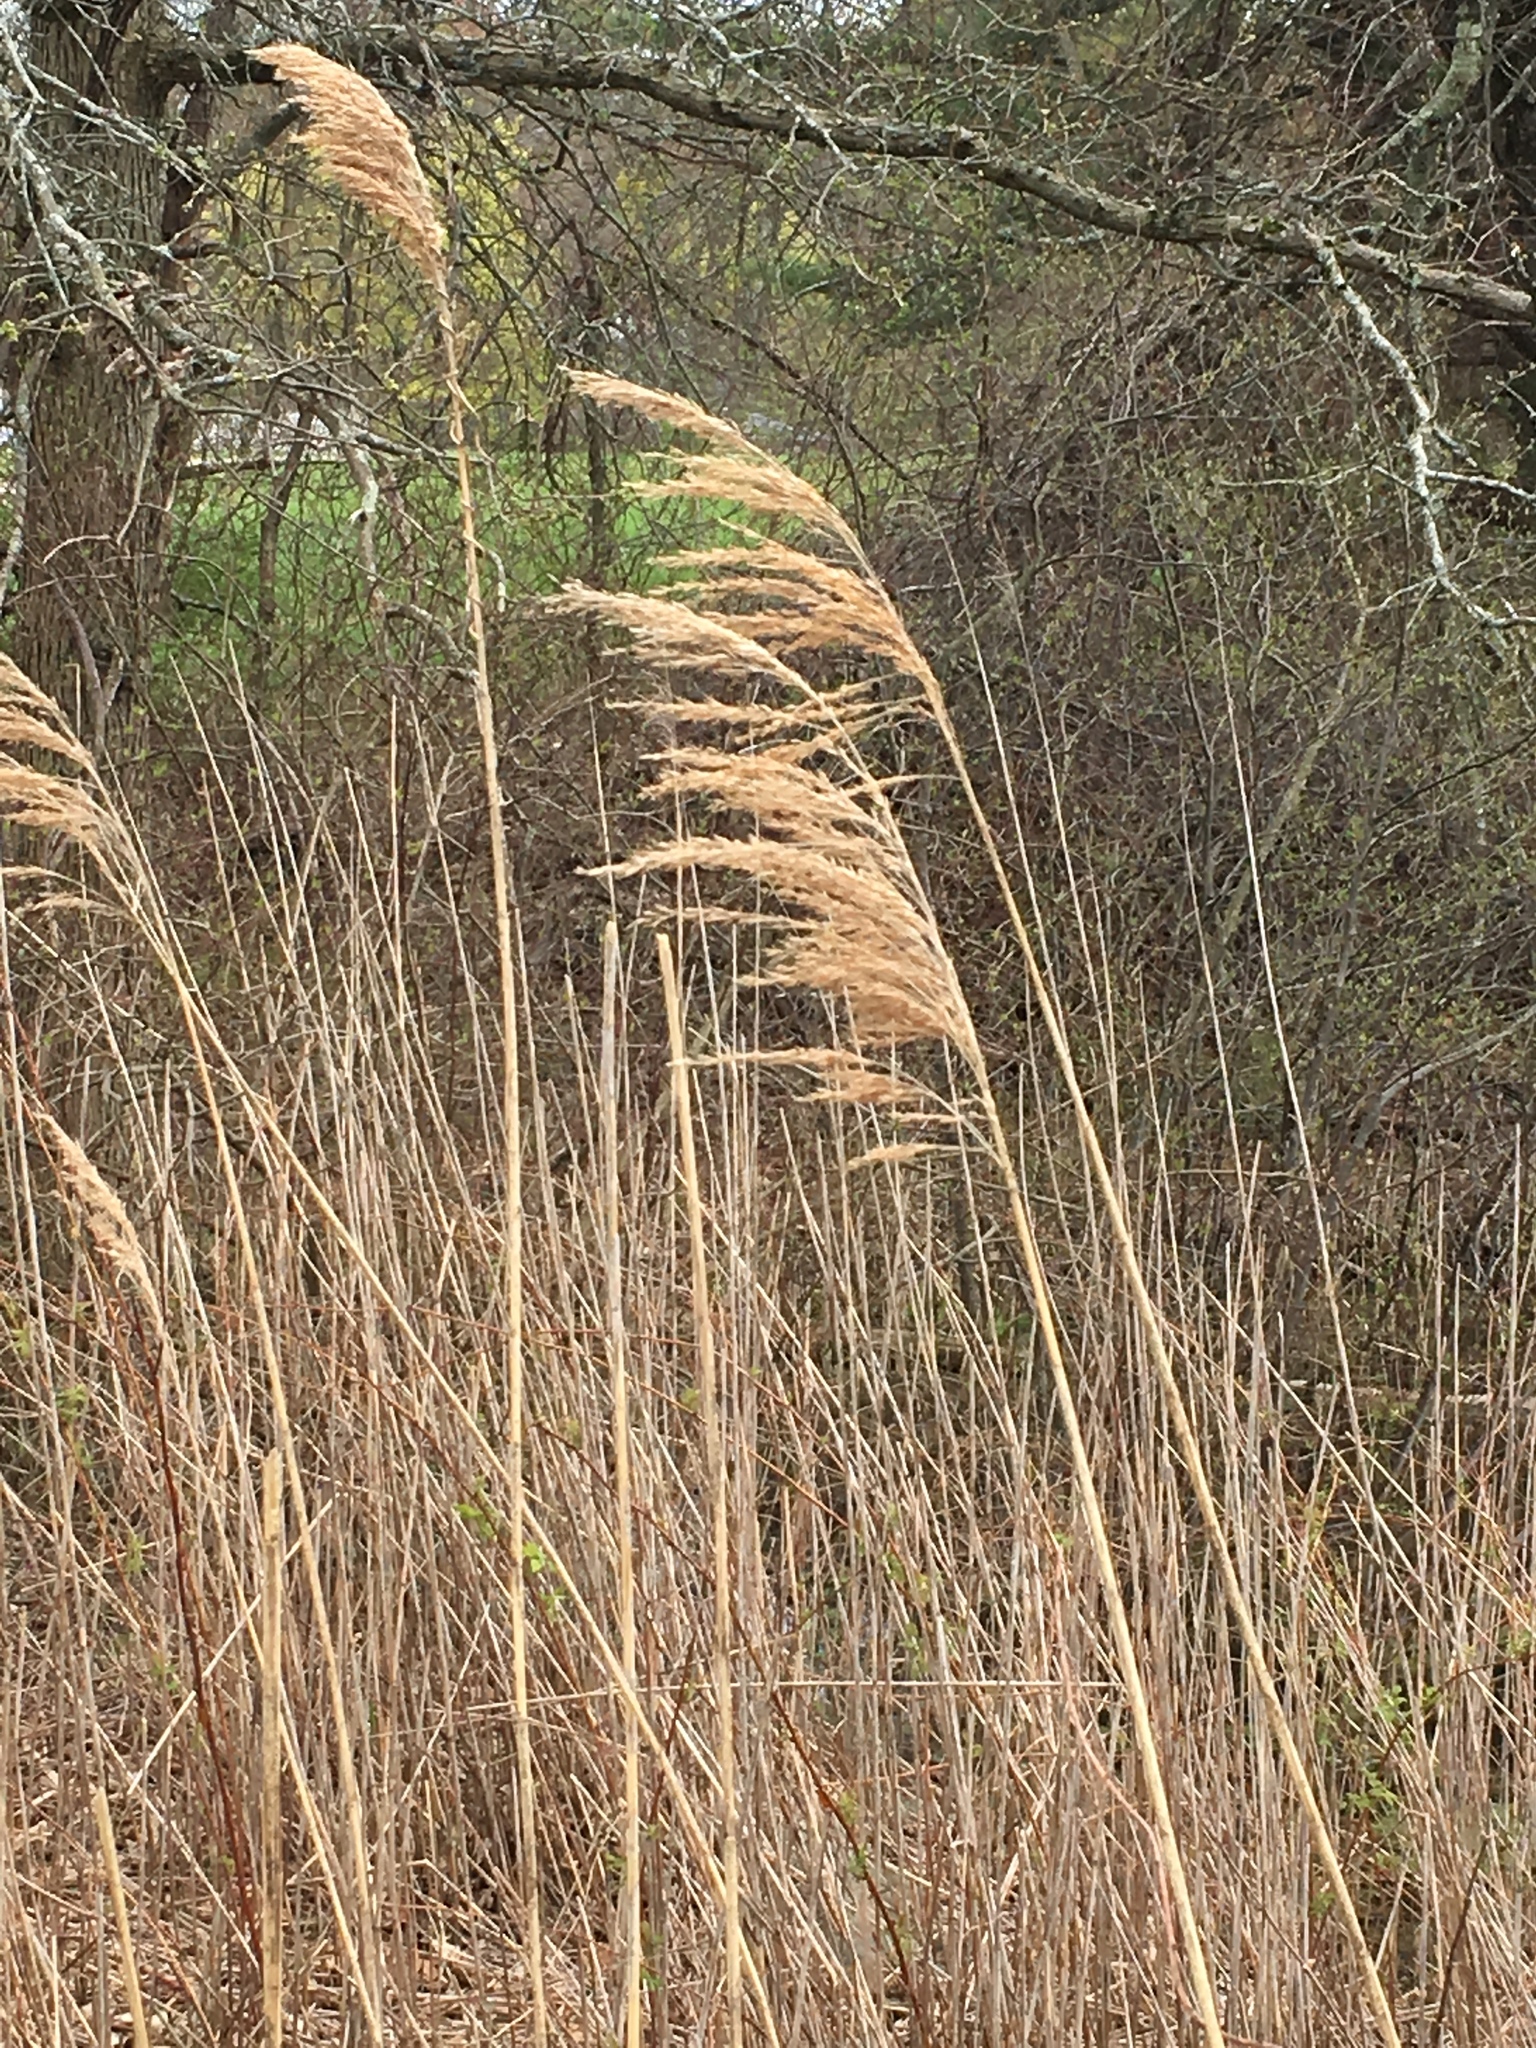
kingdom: Plantae
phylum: Tracheophyta
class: Liliopsida
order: Poales
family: Poaceae
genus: Phragmites
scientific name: Phragmites australis
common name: Common reed
